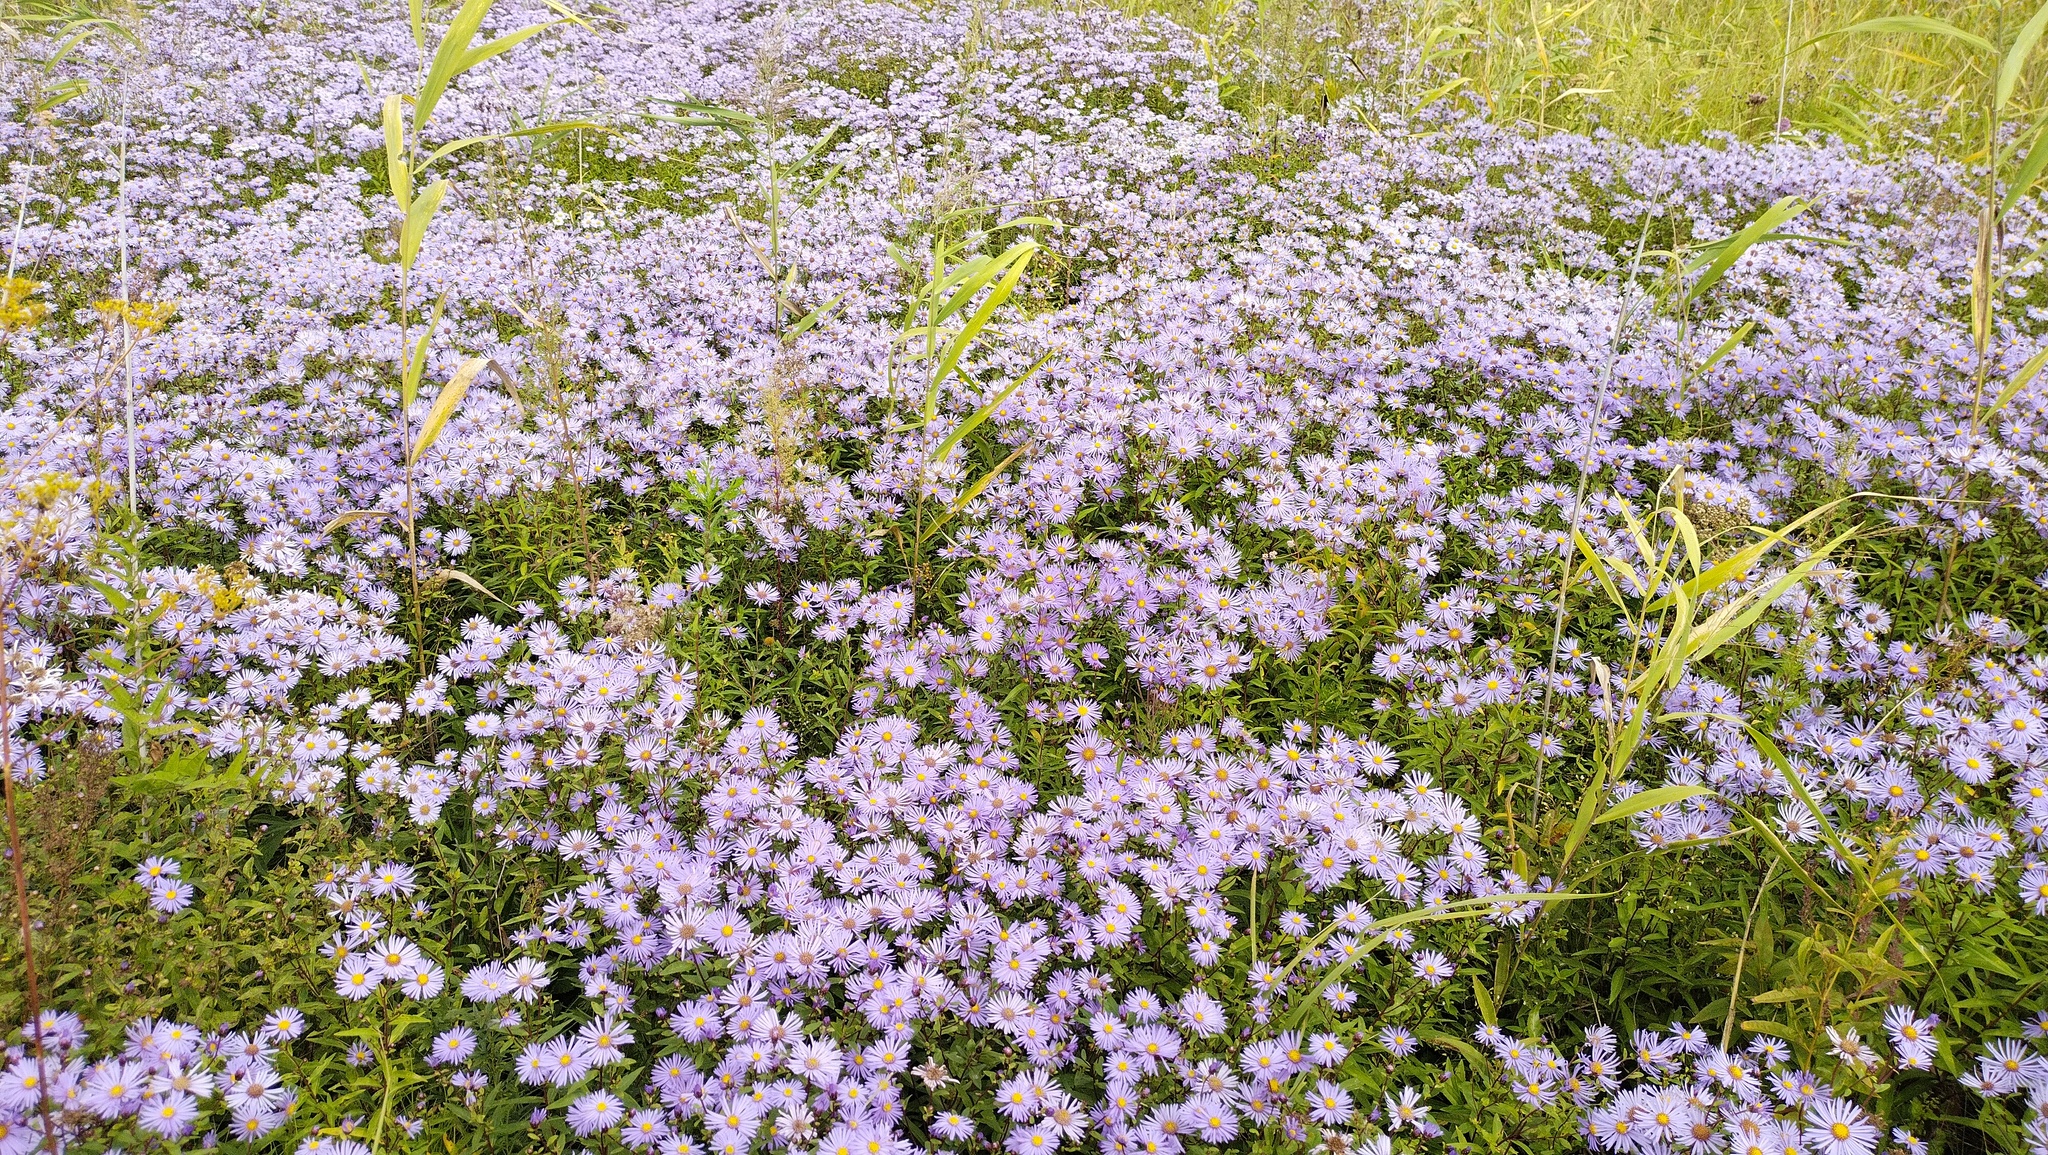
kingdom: Plantae
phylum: Tracheophyta
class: Magnoliopsida
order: Asterales
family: Asteraceae
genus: Aster
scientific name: Aster maackii
